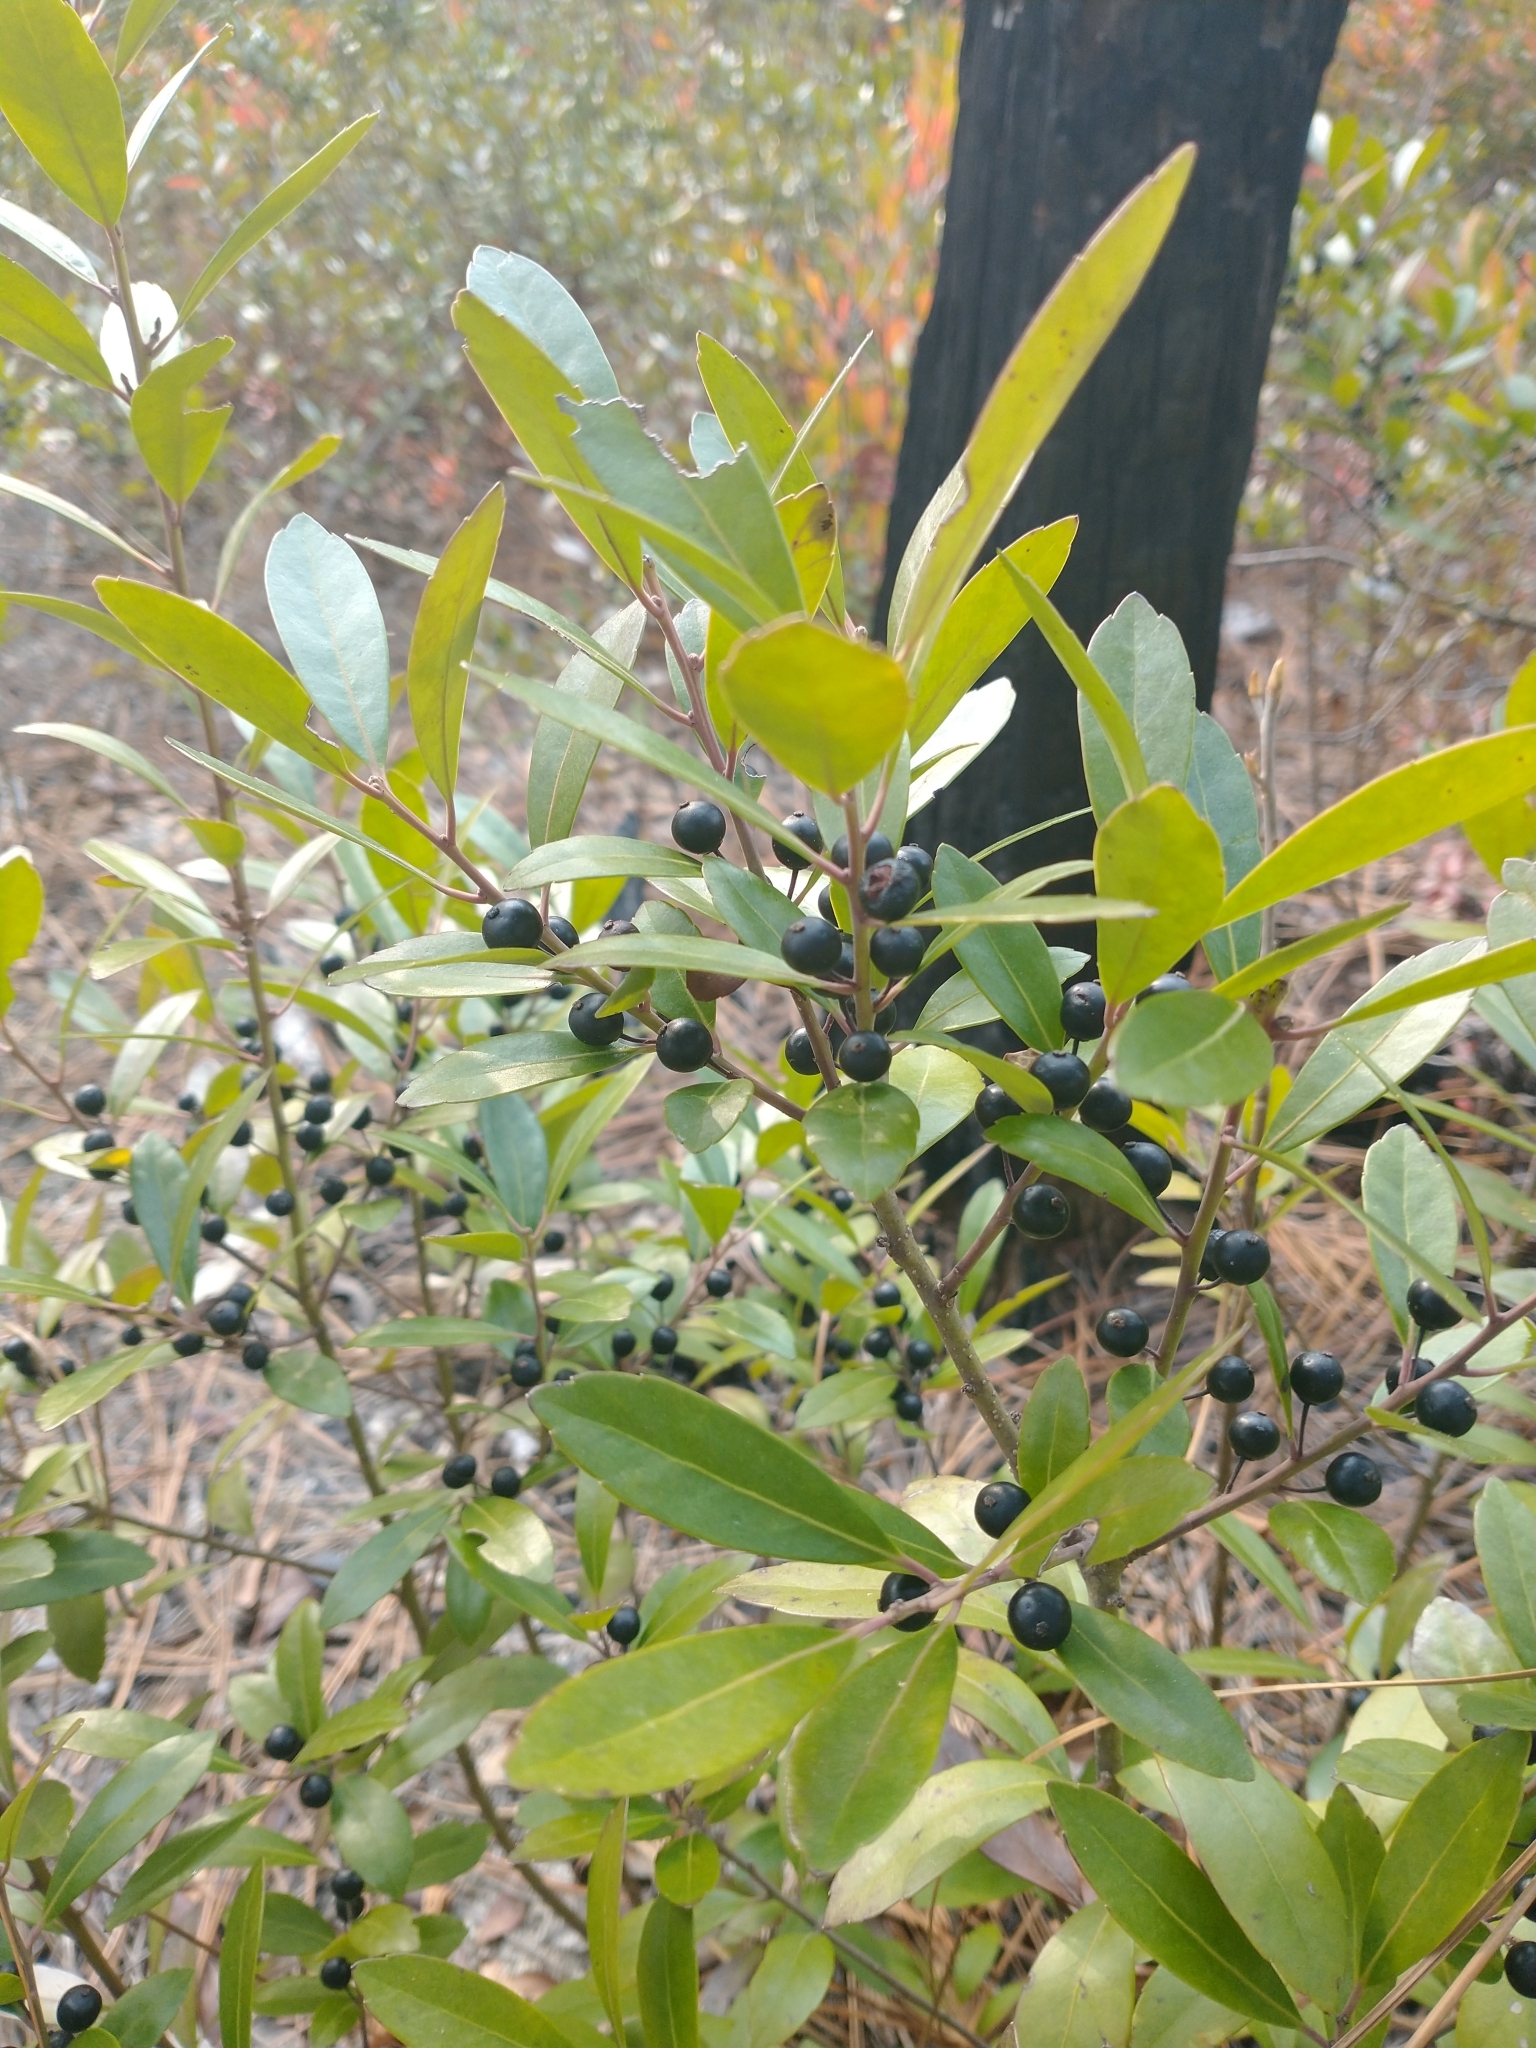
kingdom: Plantae
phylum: Tracheophyta
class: Magnoliopsida
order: Aquifoliales
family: Aquifoliaceae
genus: Ilex
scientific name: Ilex glabra
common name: Bitter gallberry
